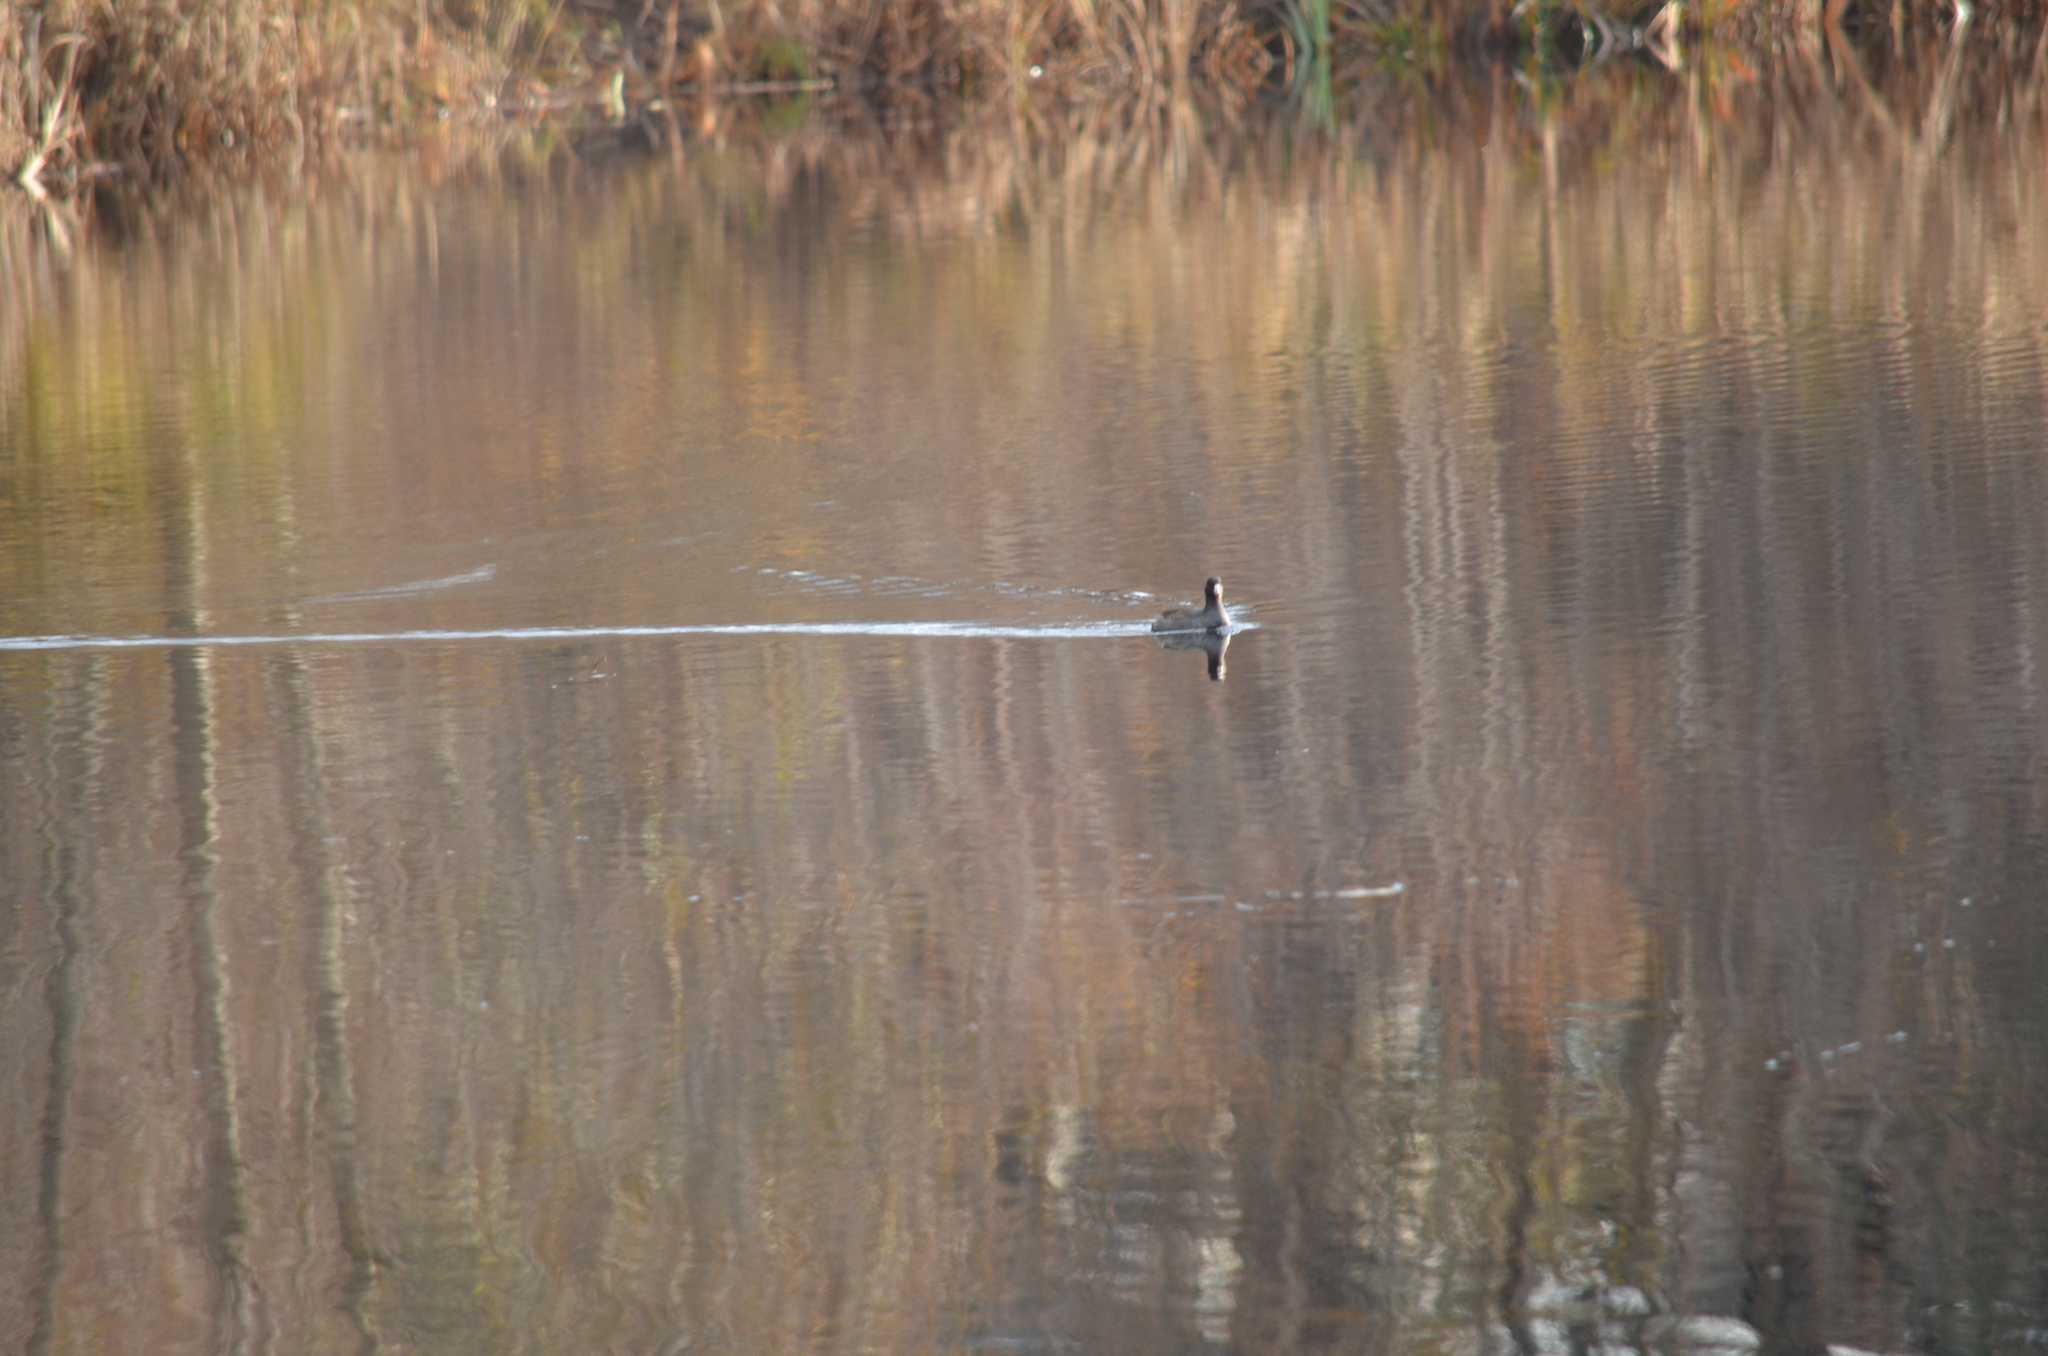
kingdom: Animalia
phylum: Chordata
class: Aves
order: Gruiformes
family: Rallidae
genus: Fulica
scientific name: Fulica americana
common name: American coot
